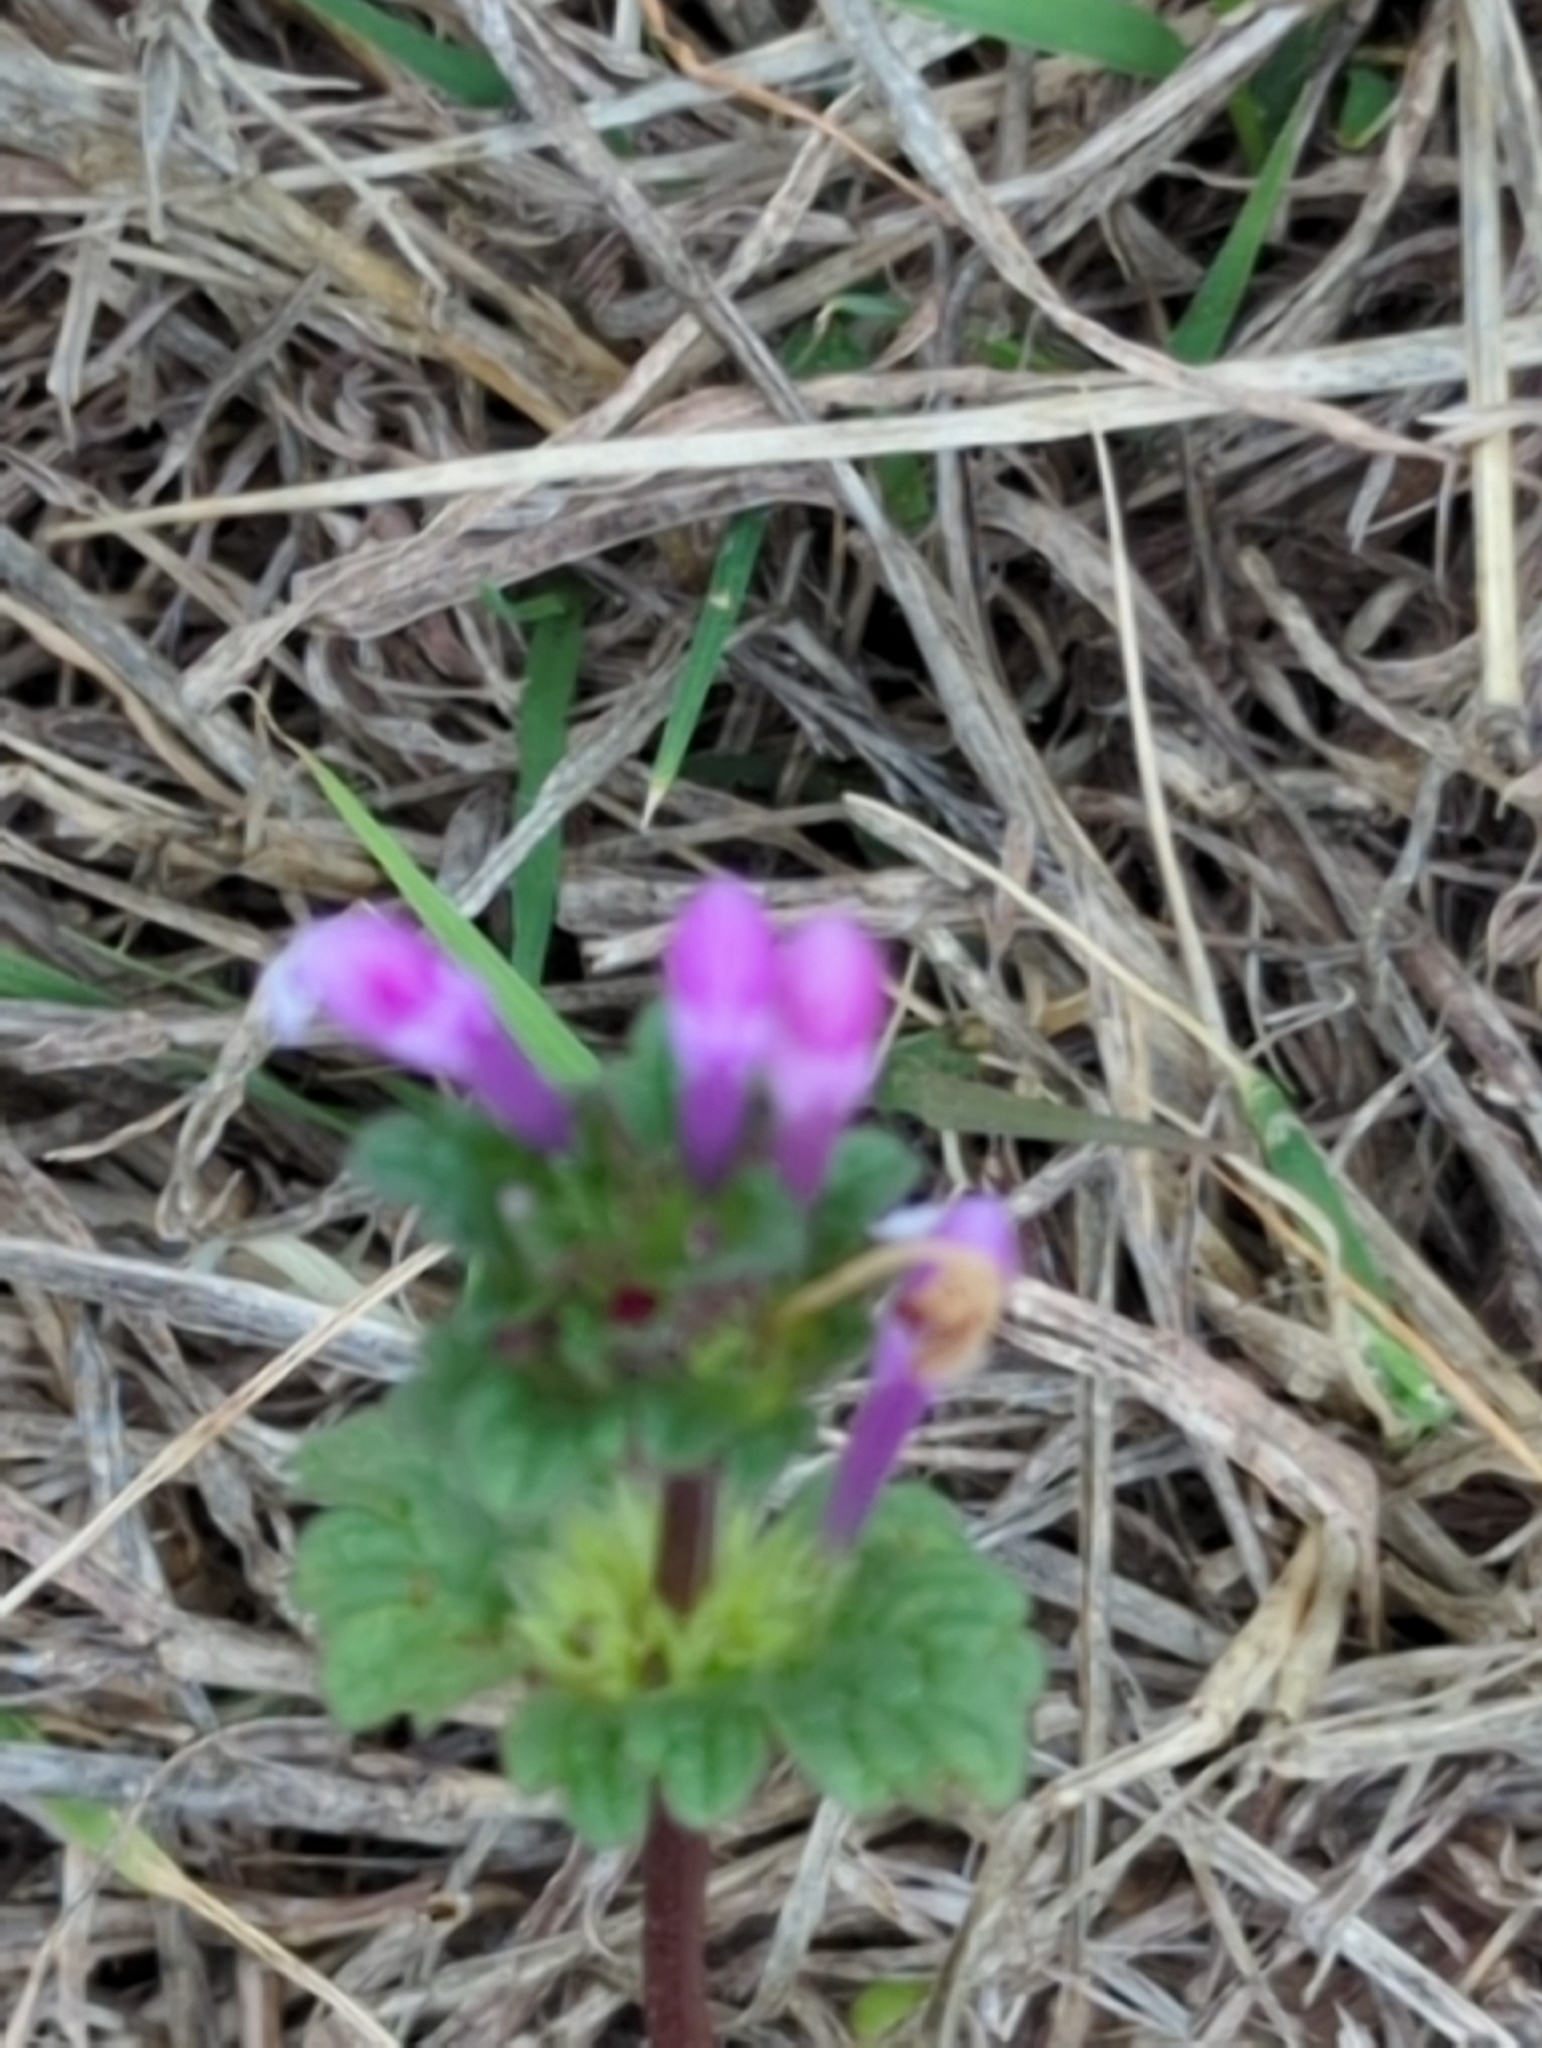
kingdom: Plantae
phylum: Tracheophyta
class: Magnoliopsida
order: Lamiales
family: Lamiaceae
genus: Lamium
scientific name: Lamium amplexicaule
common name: Henbit dead-nettle
